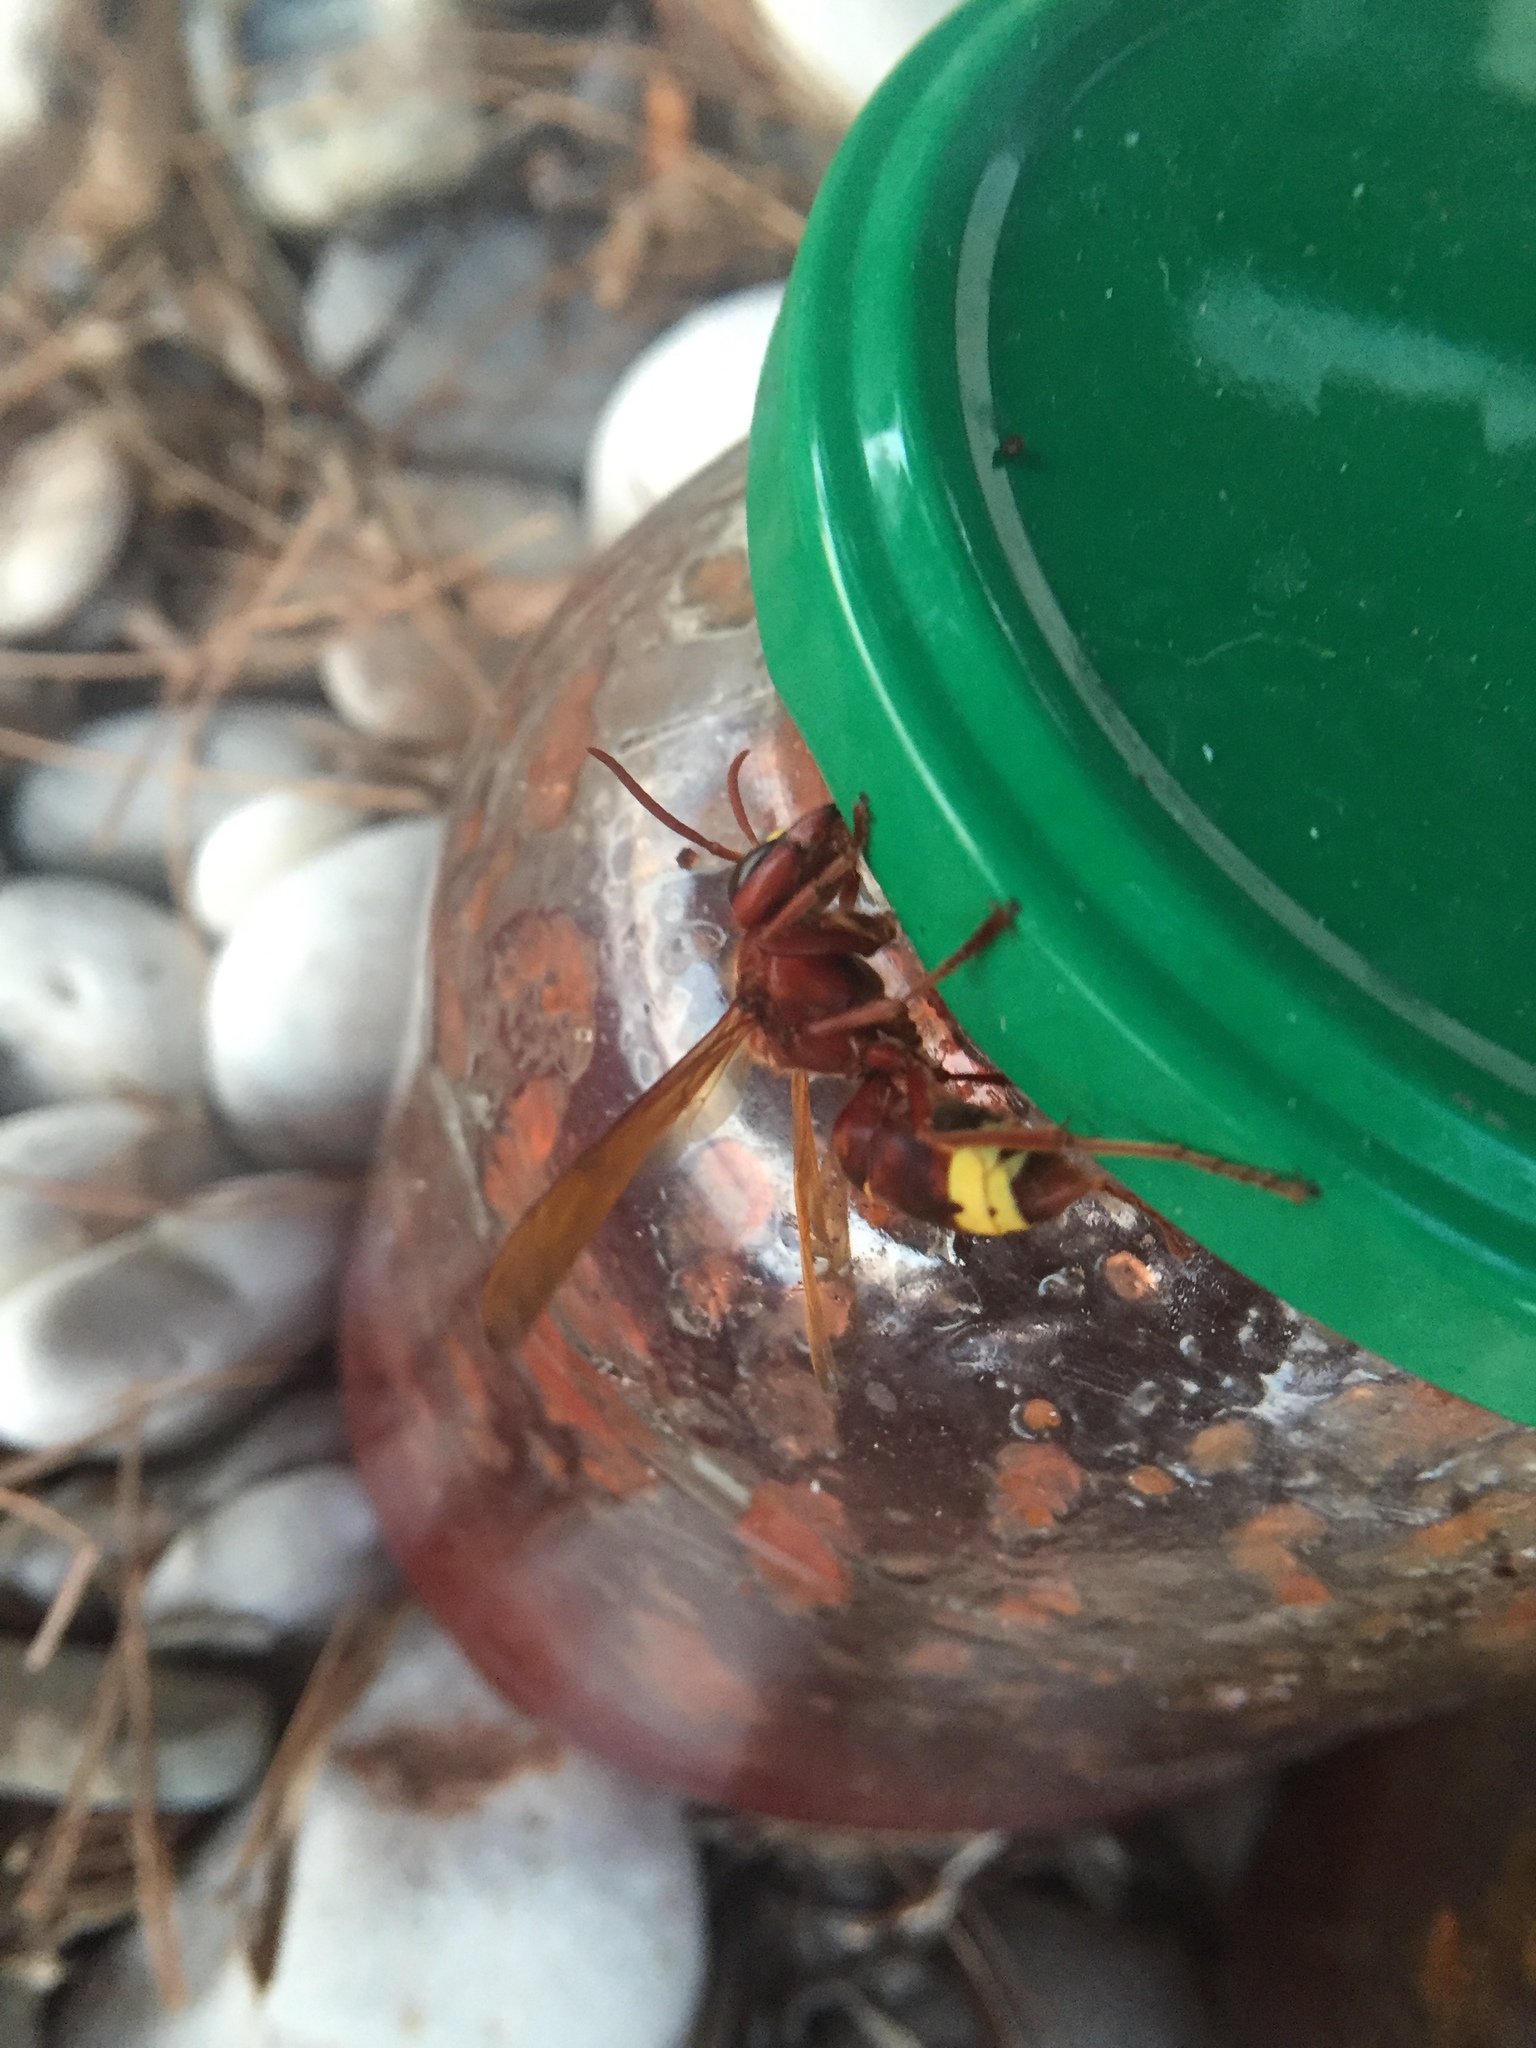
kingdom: Animalia
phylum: Arthropoda
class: Insecta
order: Hymenoptera
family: Vespidae
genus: Vespa
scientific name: Vespa orientalis
